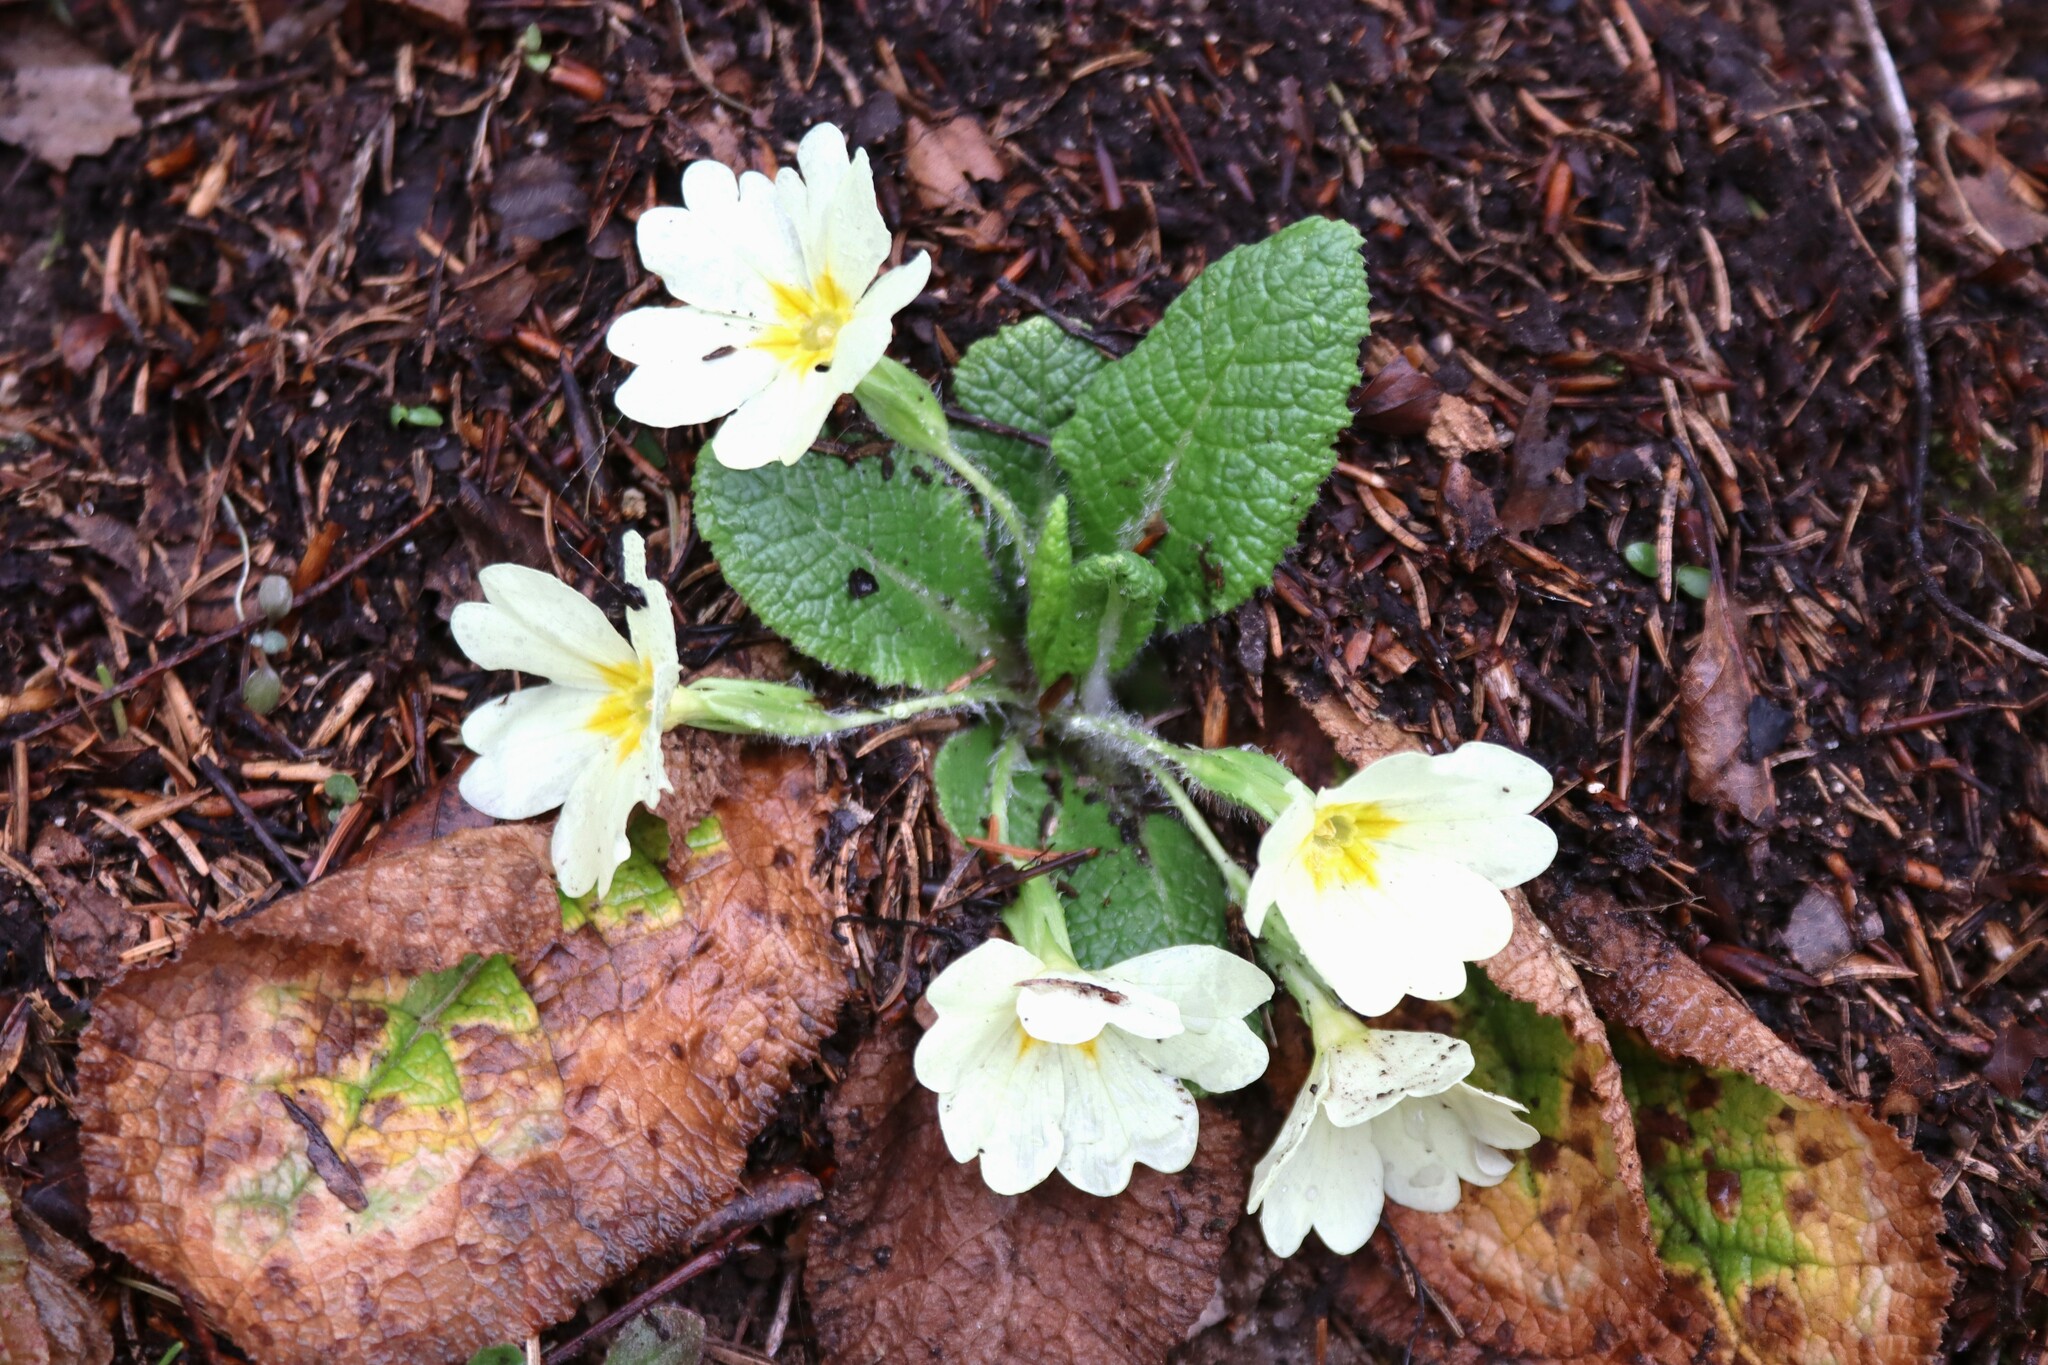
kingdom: Plantae
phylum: Tracheophyta
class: Magnoliopsida
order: Ericales
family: Primulaceae
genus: Primula
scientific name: Primula vulgaris
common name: Primrose
